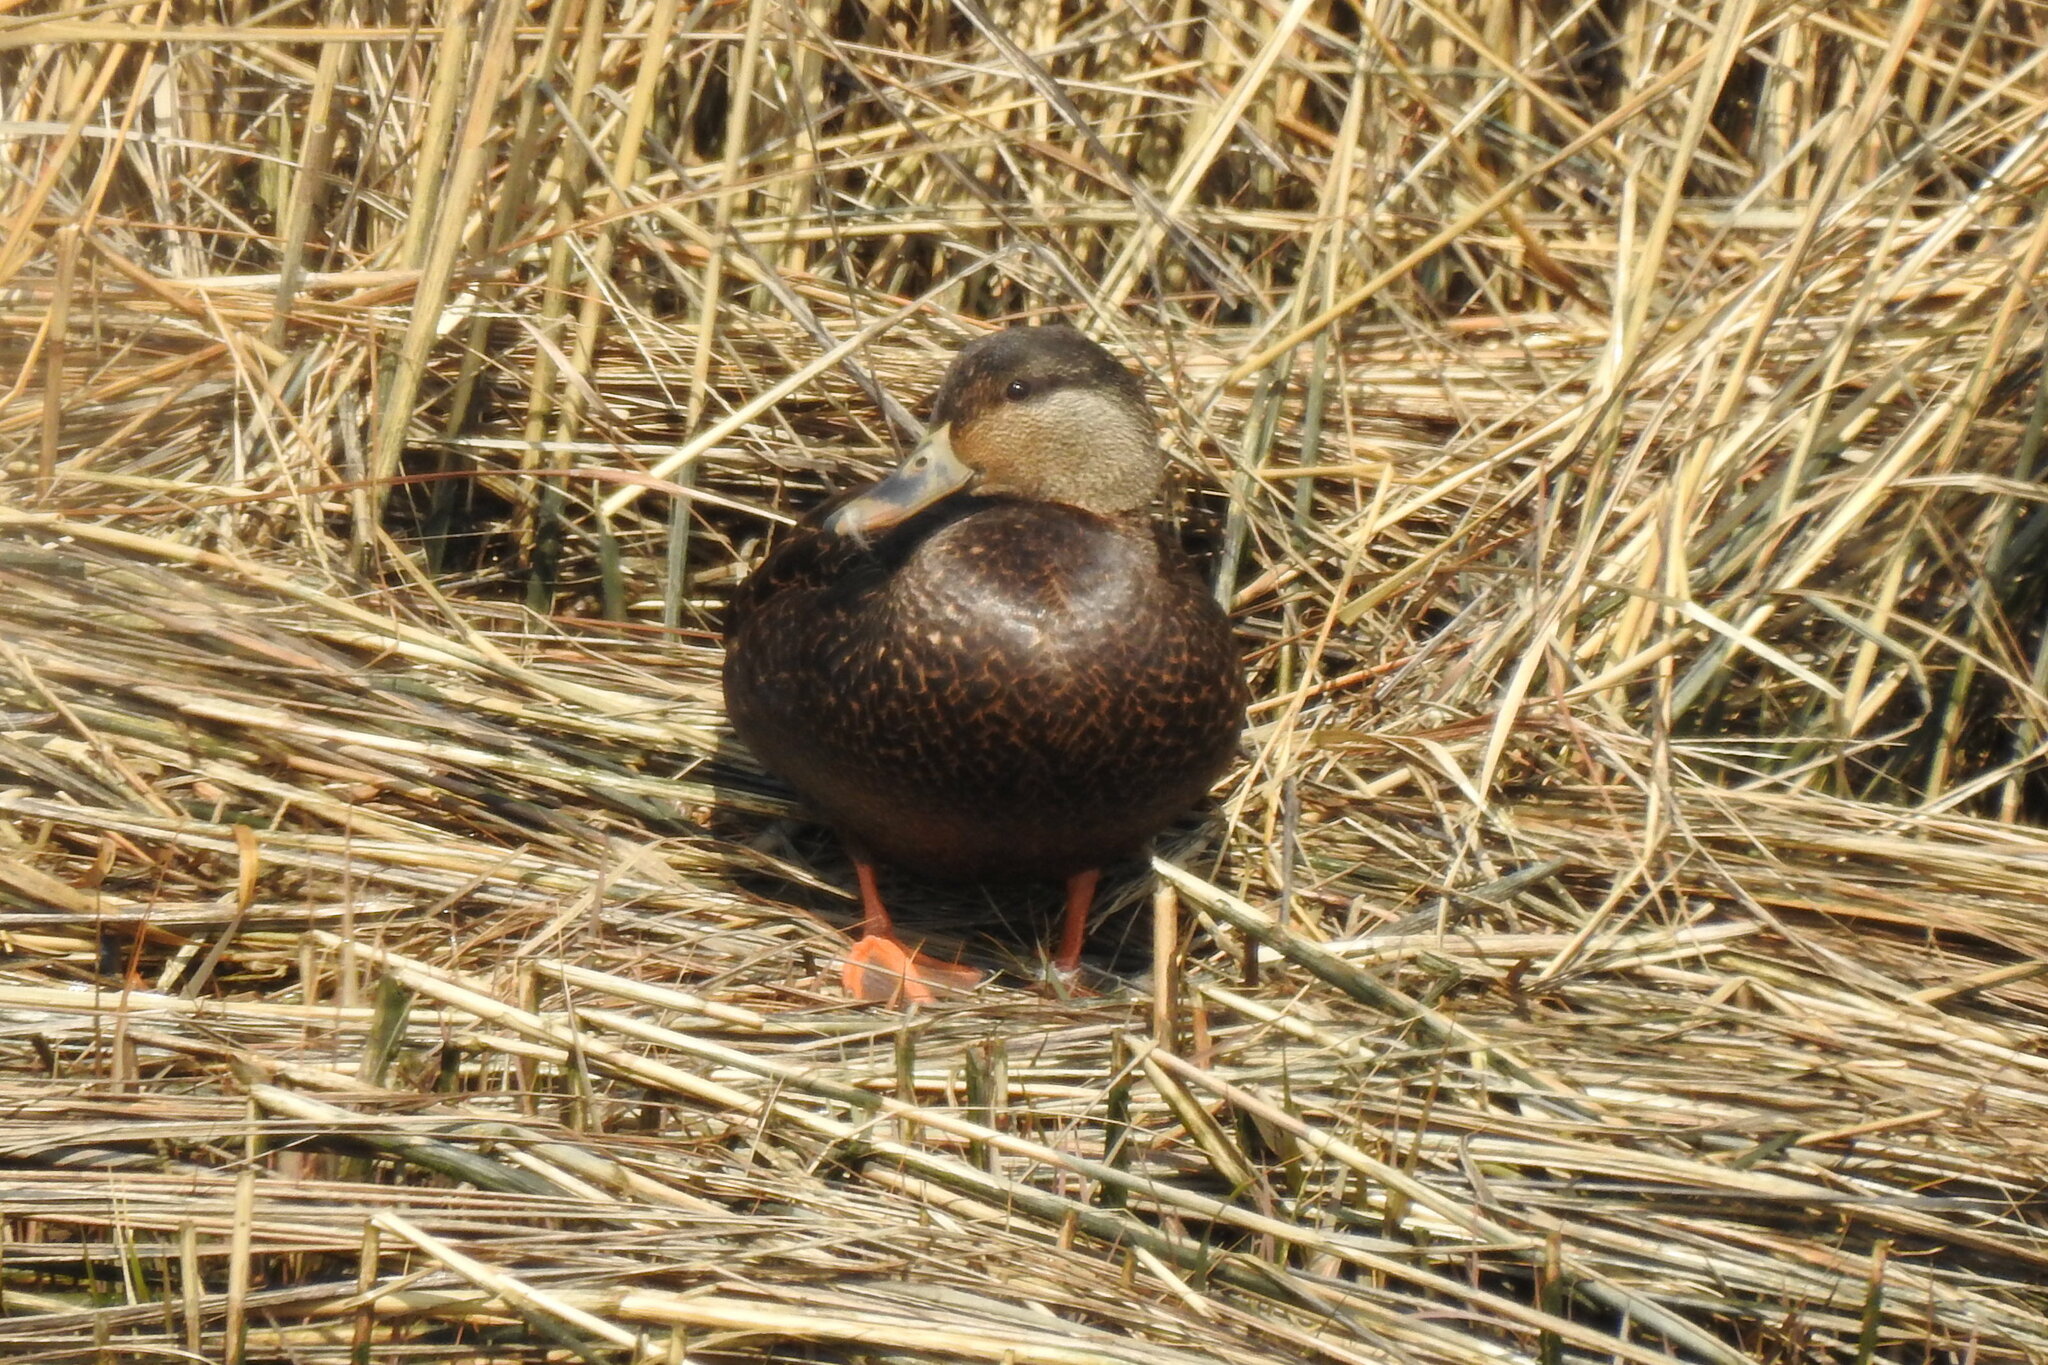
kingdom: Animalia
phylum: Chordata
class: Aves
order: Anseriformes
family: Anatidae
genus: Anas
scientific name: Anas rubripes
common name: American black duck
